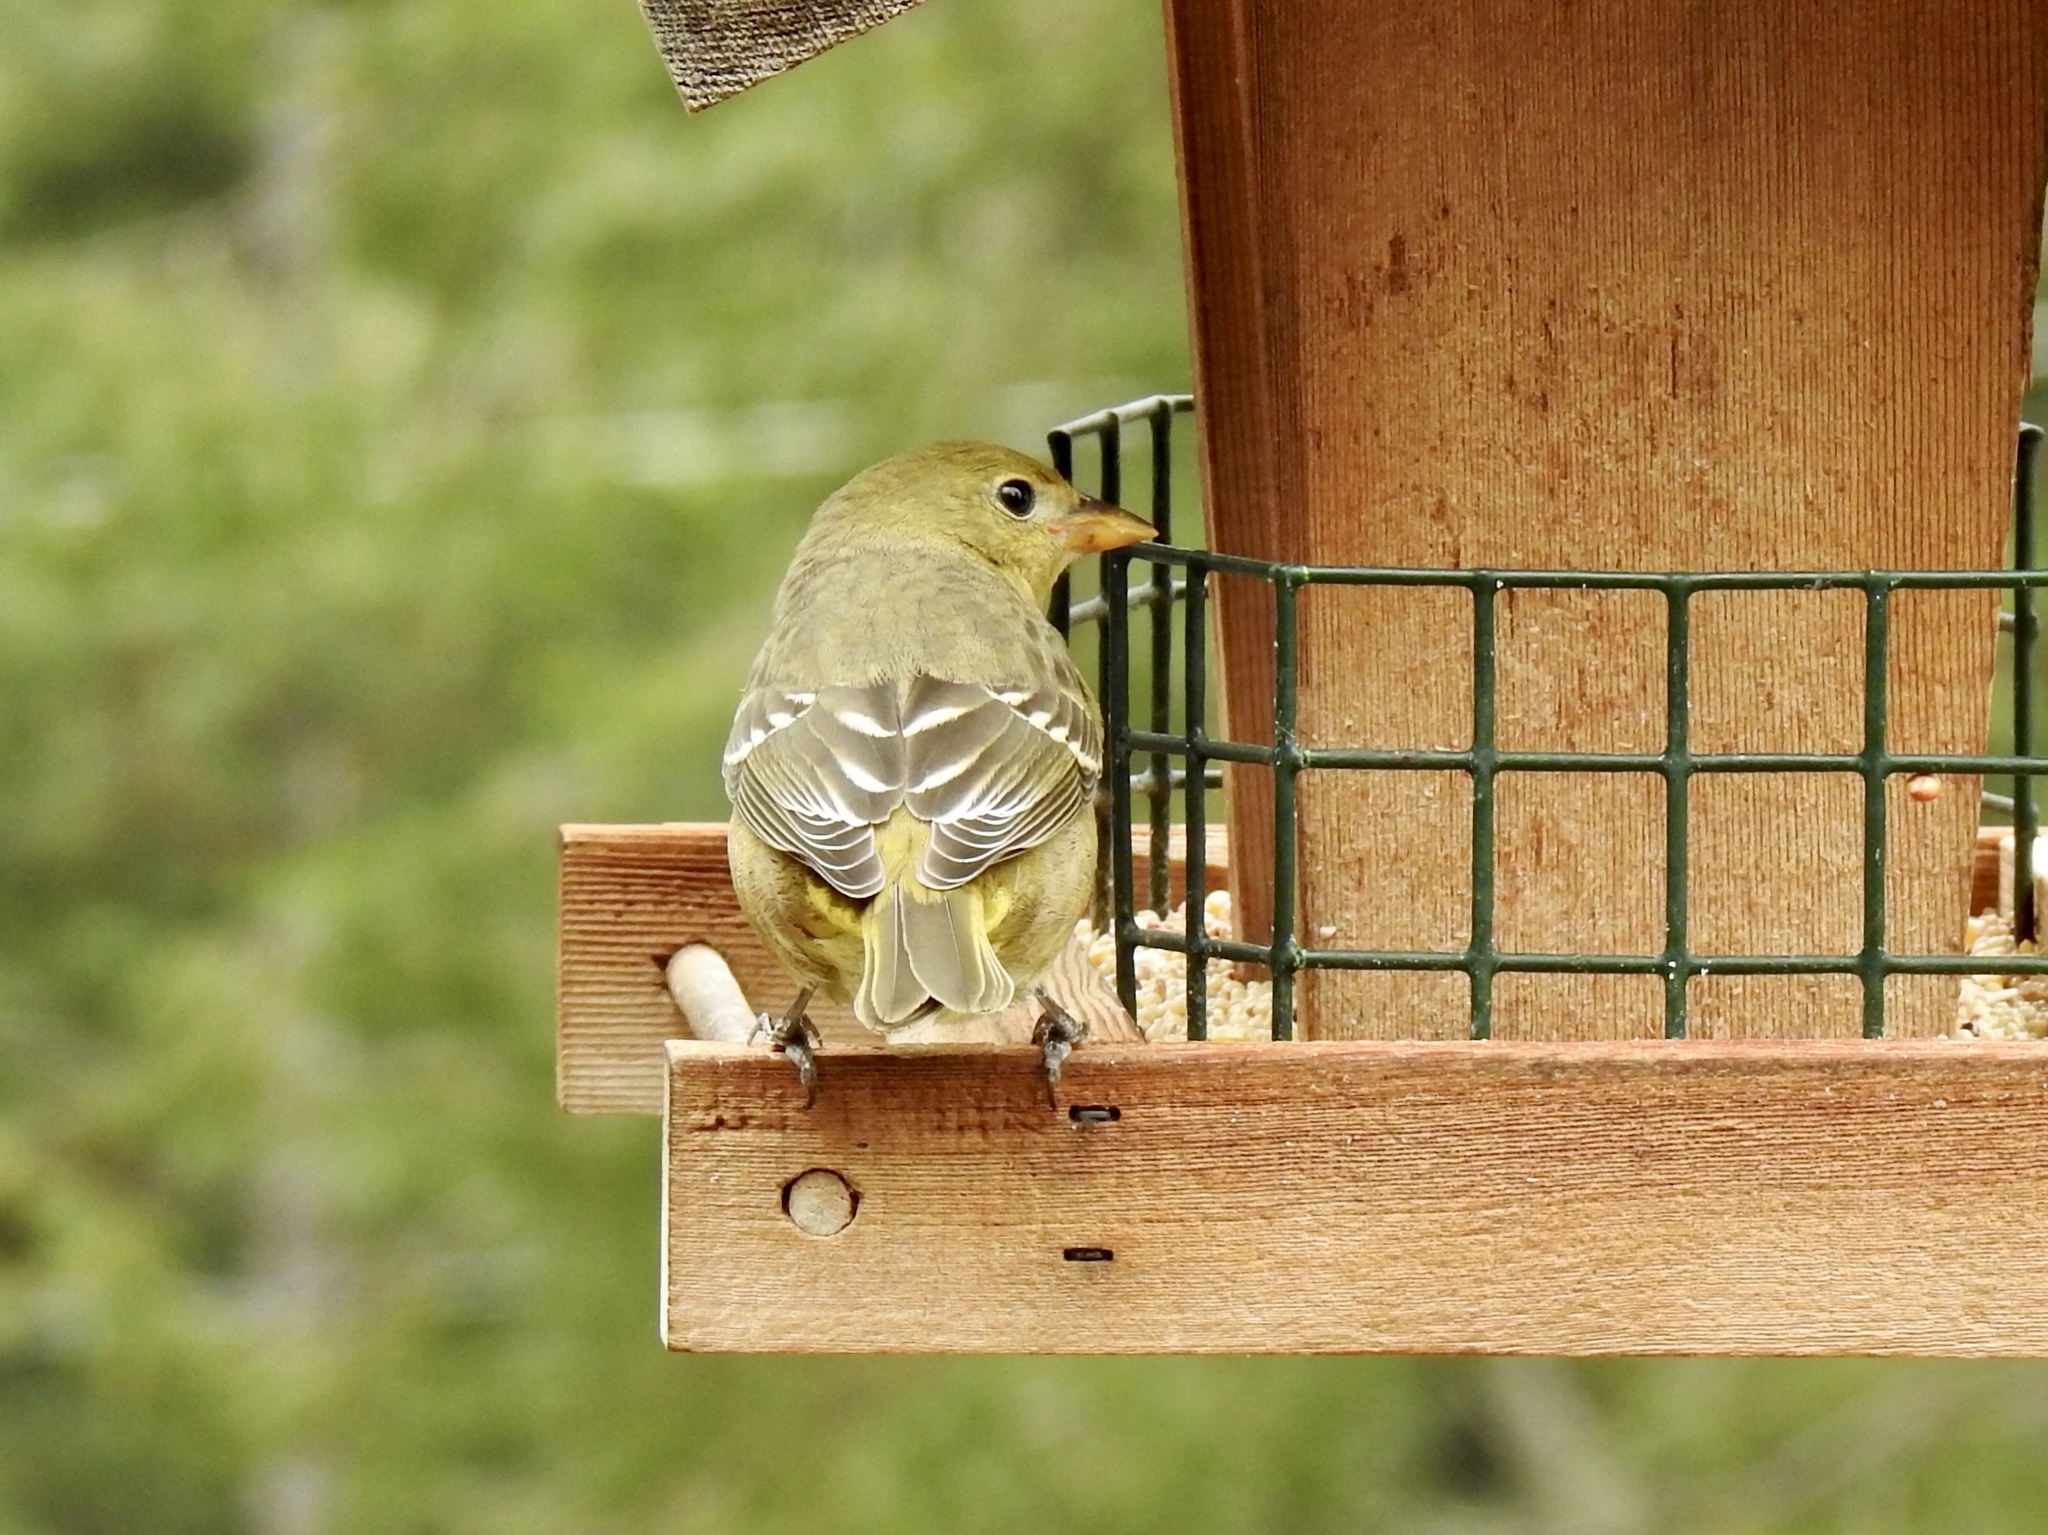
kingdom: Animalia
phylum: Chordata
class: Aves
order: Passeriformes
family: Cardinalidae
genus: Piranga
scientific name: Piranga ludoviciana
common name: Western tanager
